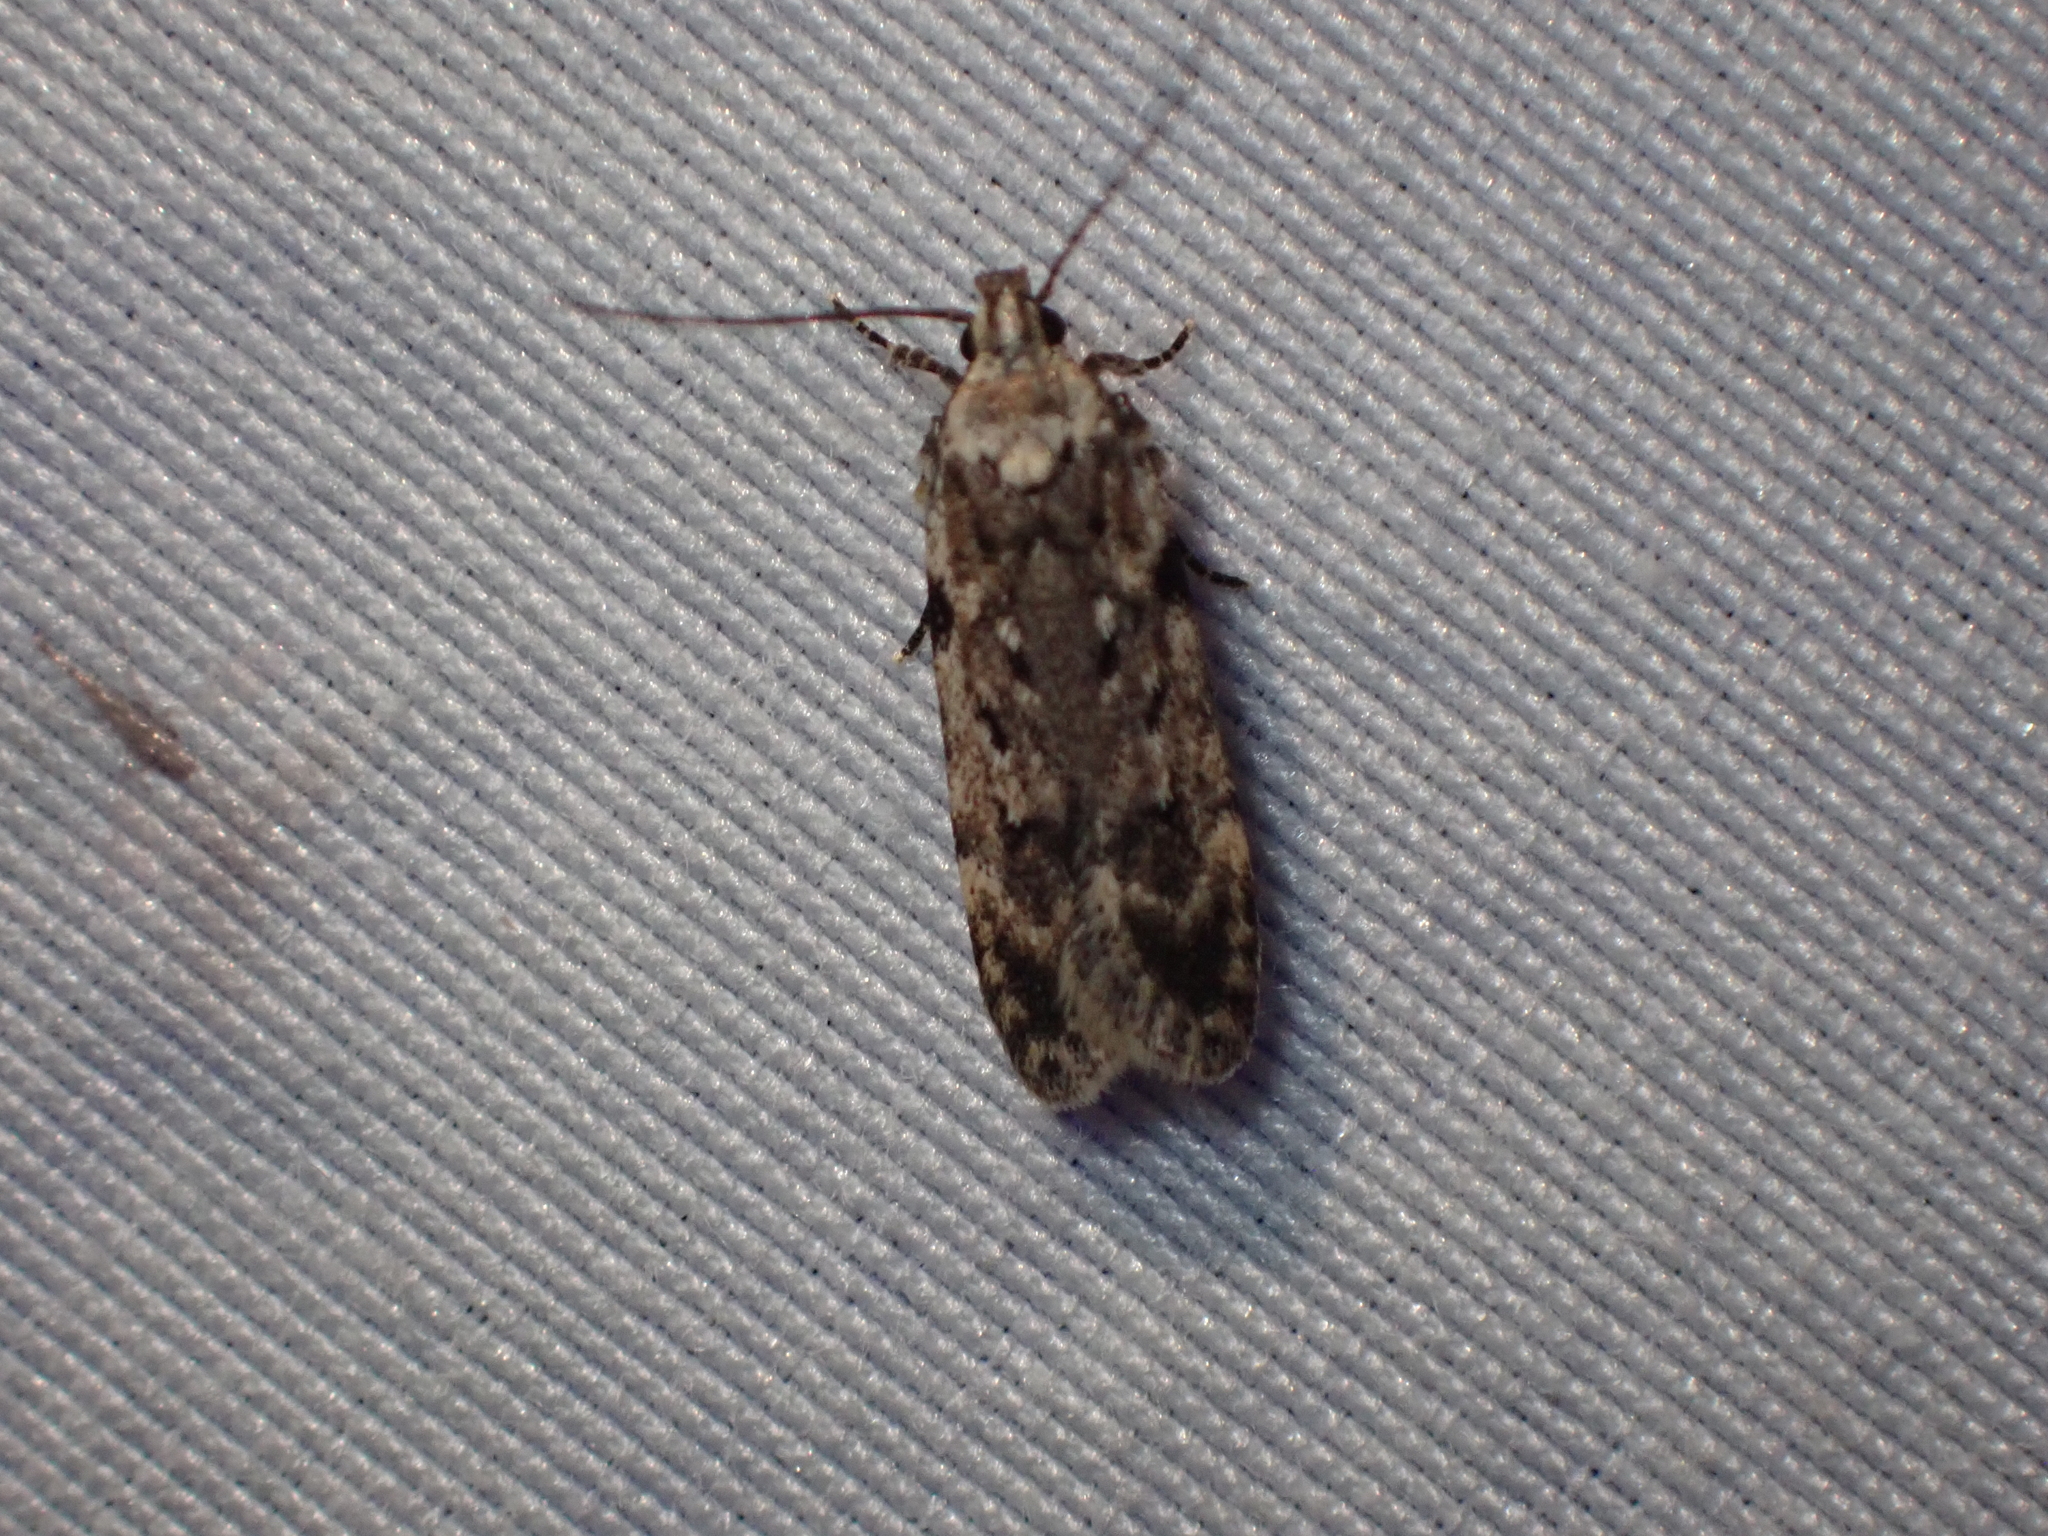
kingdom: Animalia
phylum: Arthropoda
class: Insecta
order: Lepidoptera
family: Gelechiidae
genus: Chionodes
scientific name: Chionodes petalumensis
